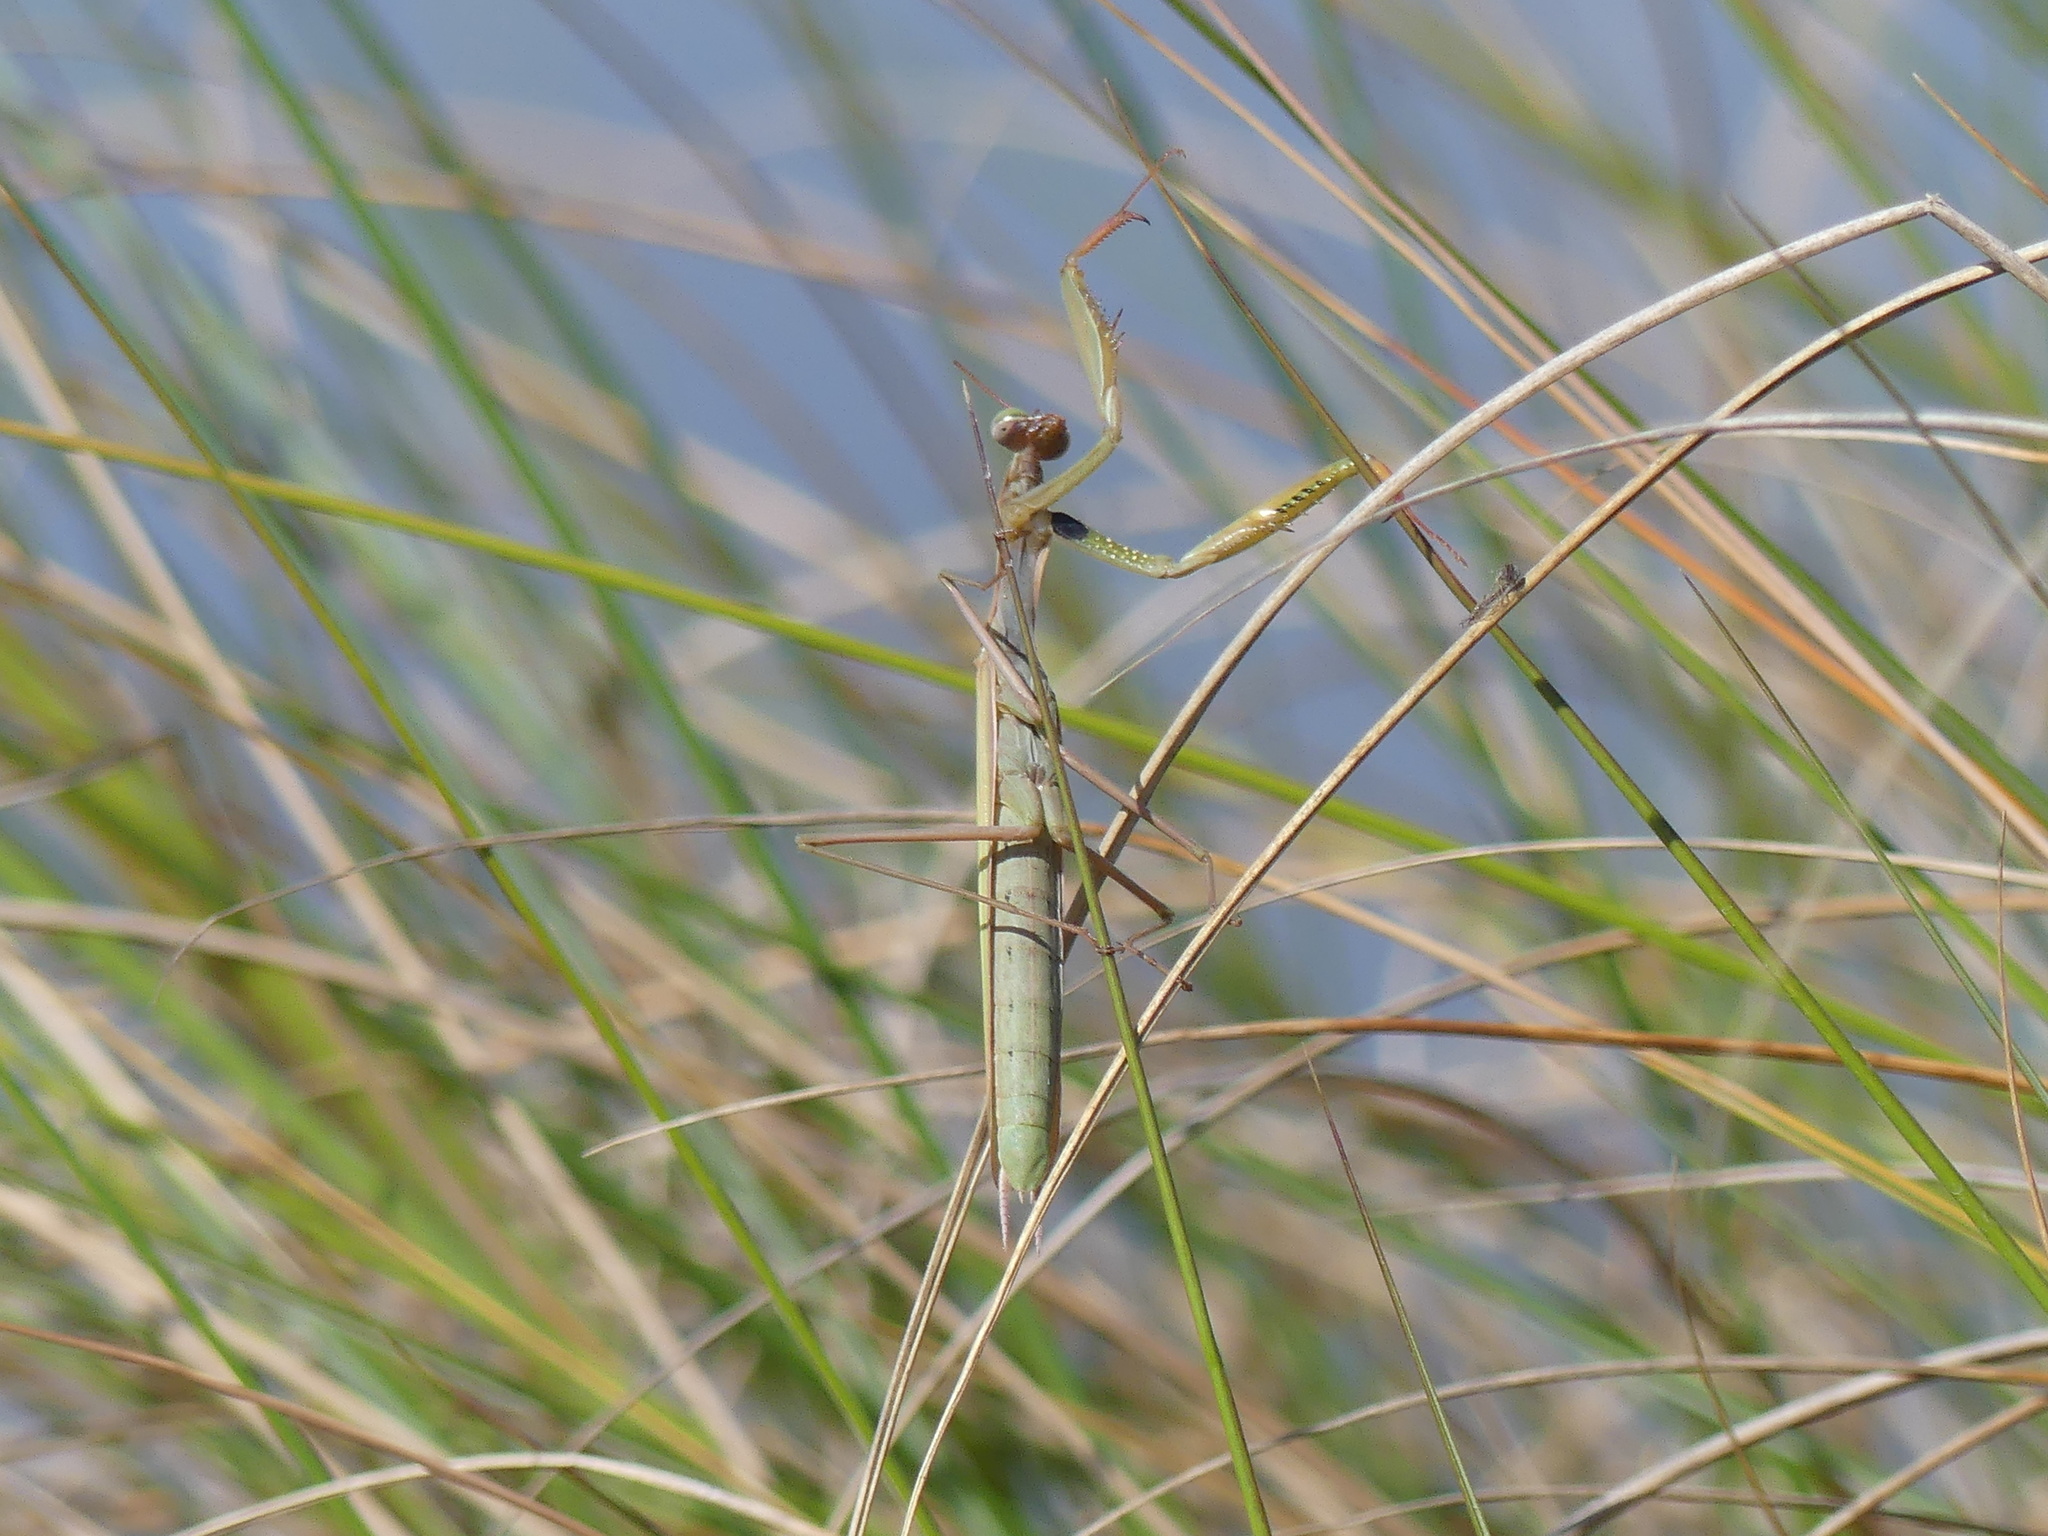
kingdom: Animalia
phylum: Arthropoda
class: Insecta
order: Mantodea
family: Mantidae
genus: Mantis
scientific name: Mantis religiosa
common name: Praying mantis
